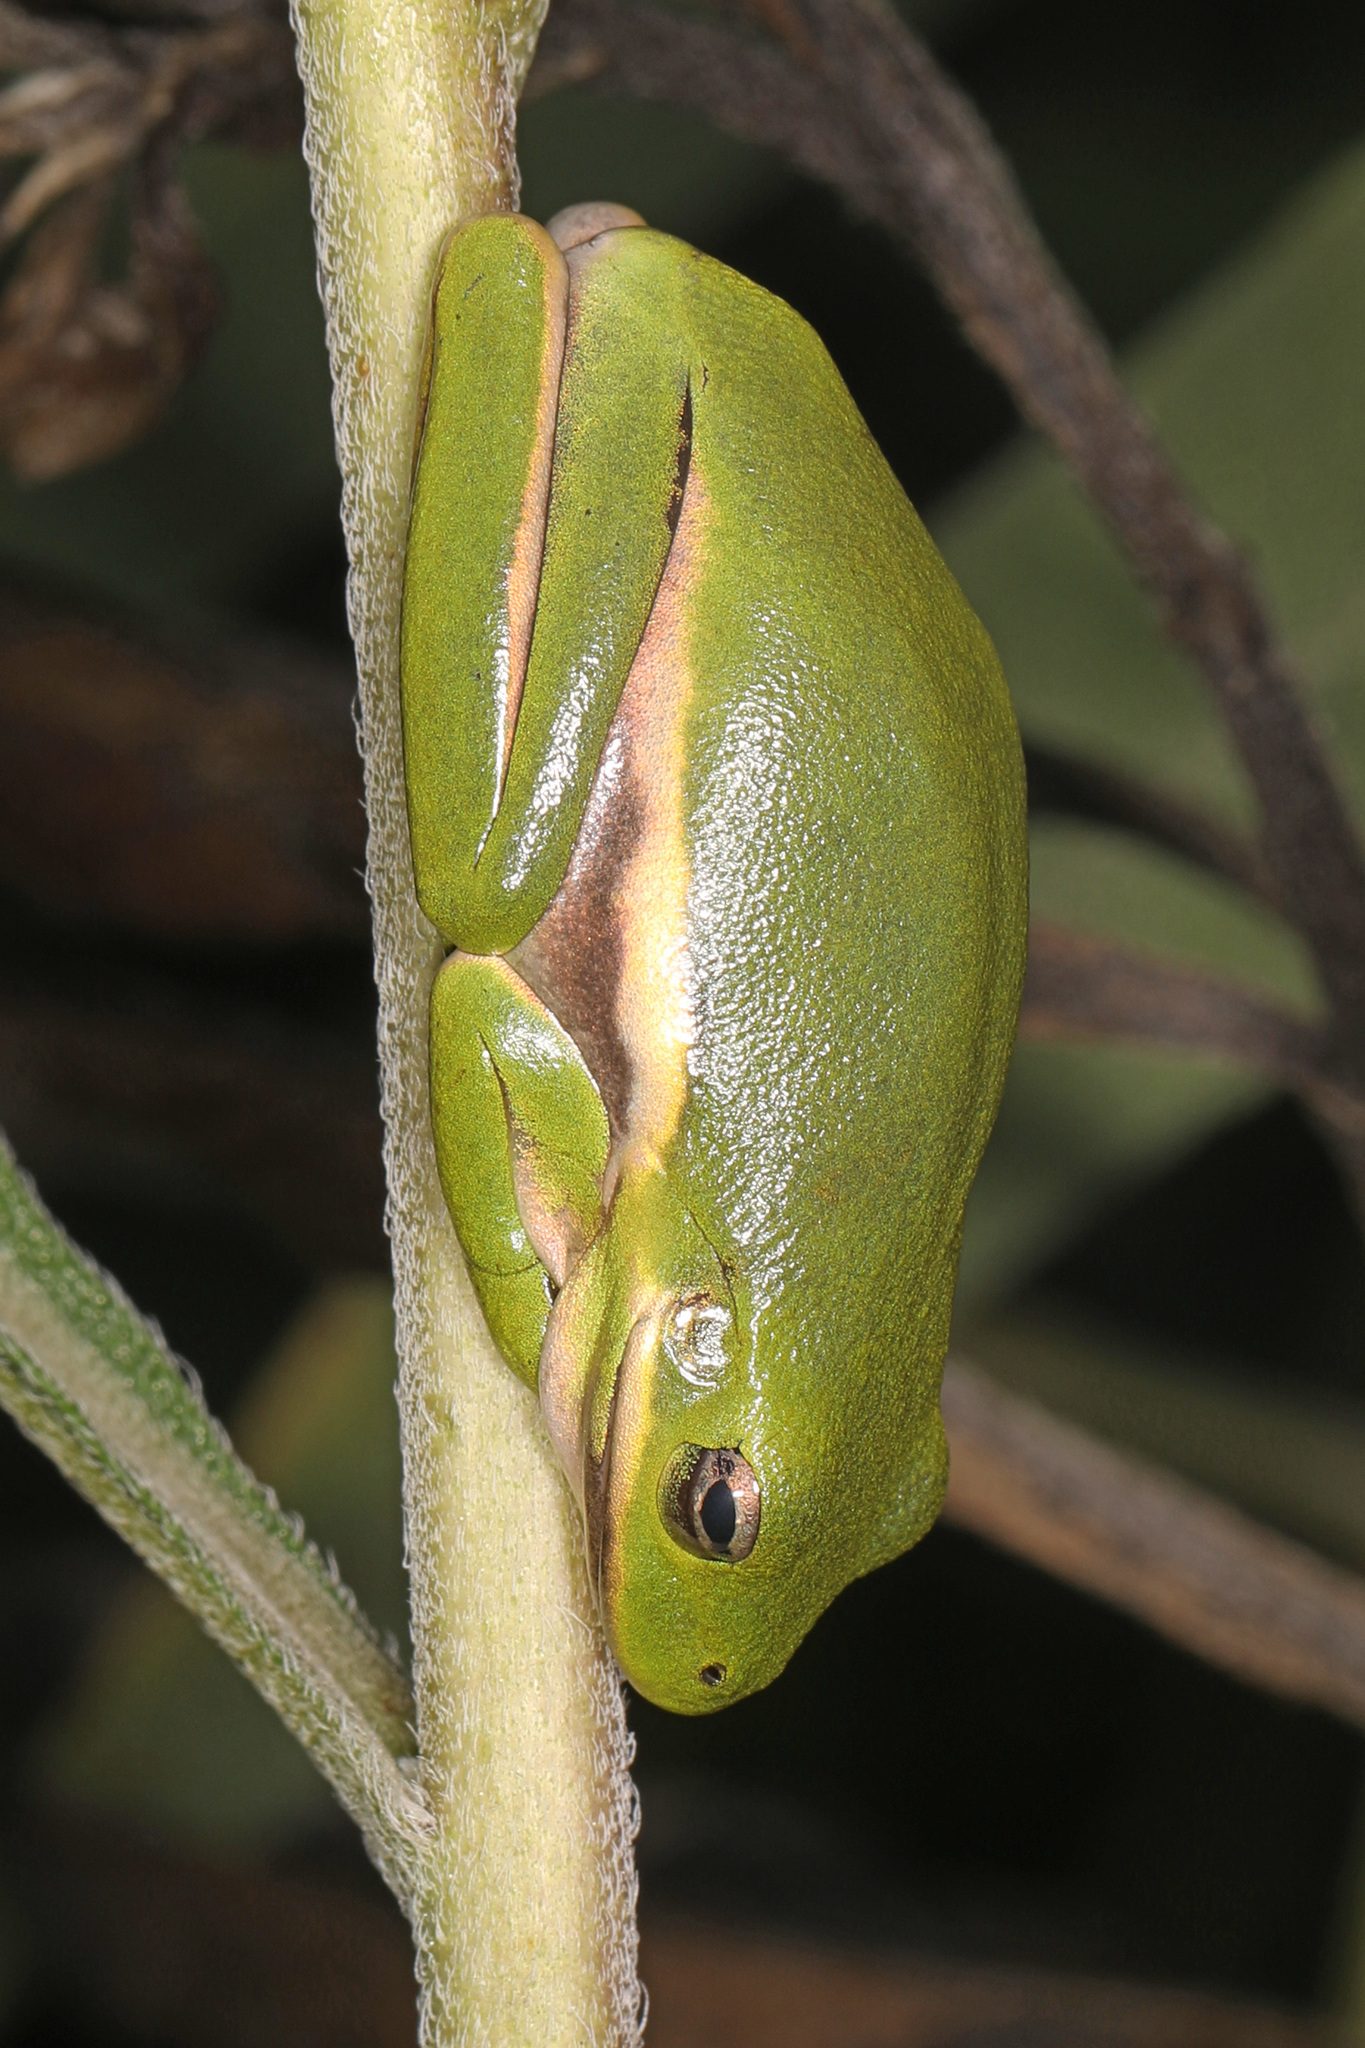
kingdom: Animalia
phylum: Chordata
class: Amphibia
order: Anura
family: Hylidae
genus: Dryophytes
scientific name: Dryophytes cinereus
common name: Green treefrog
